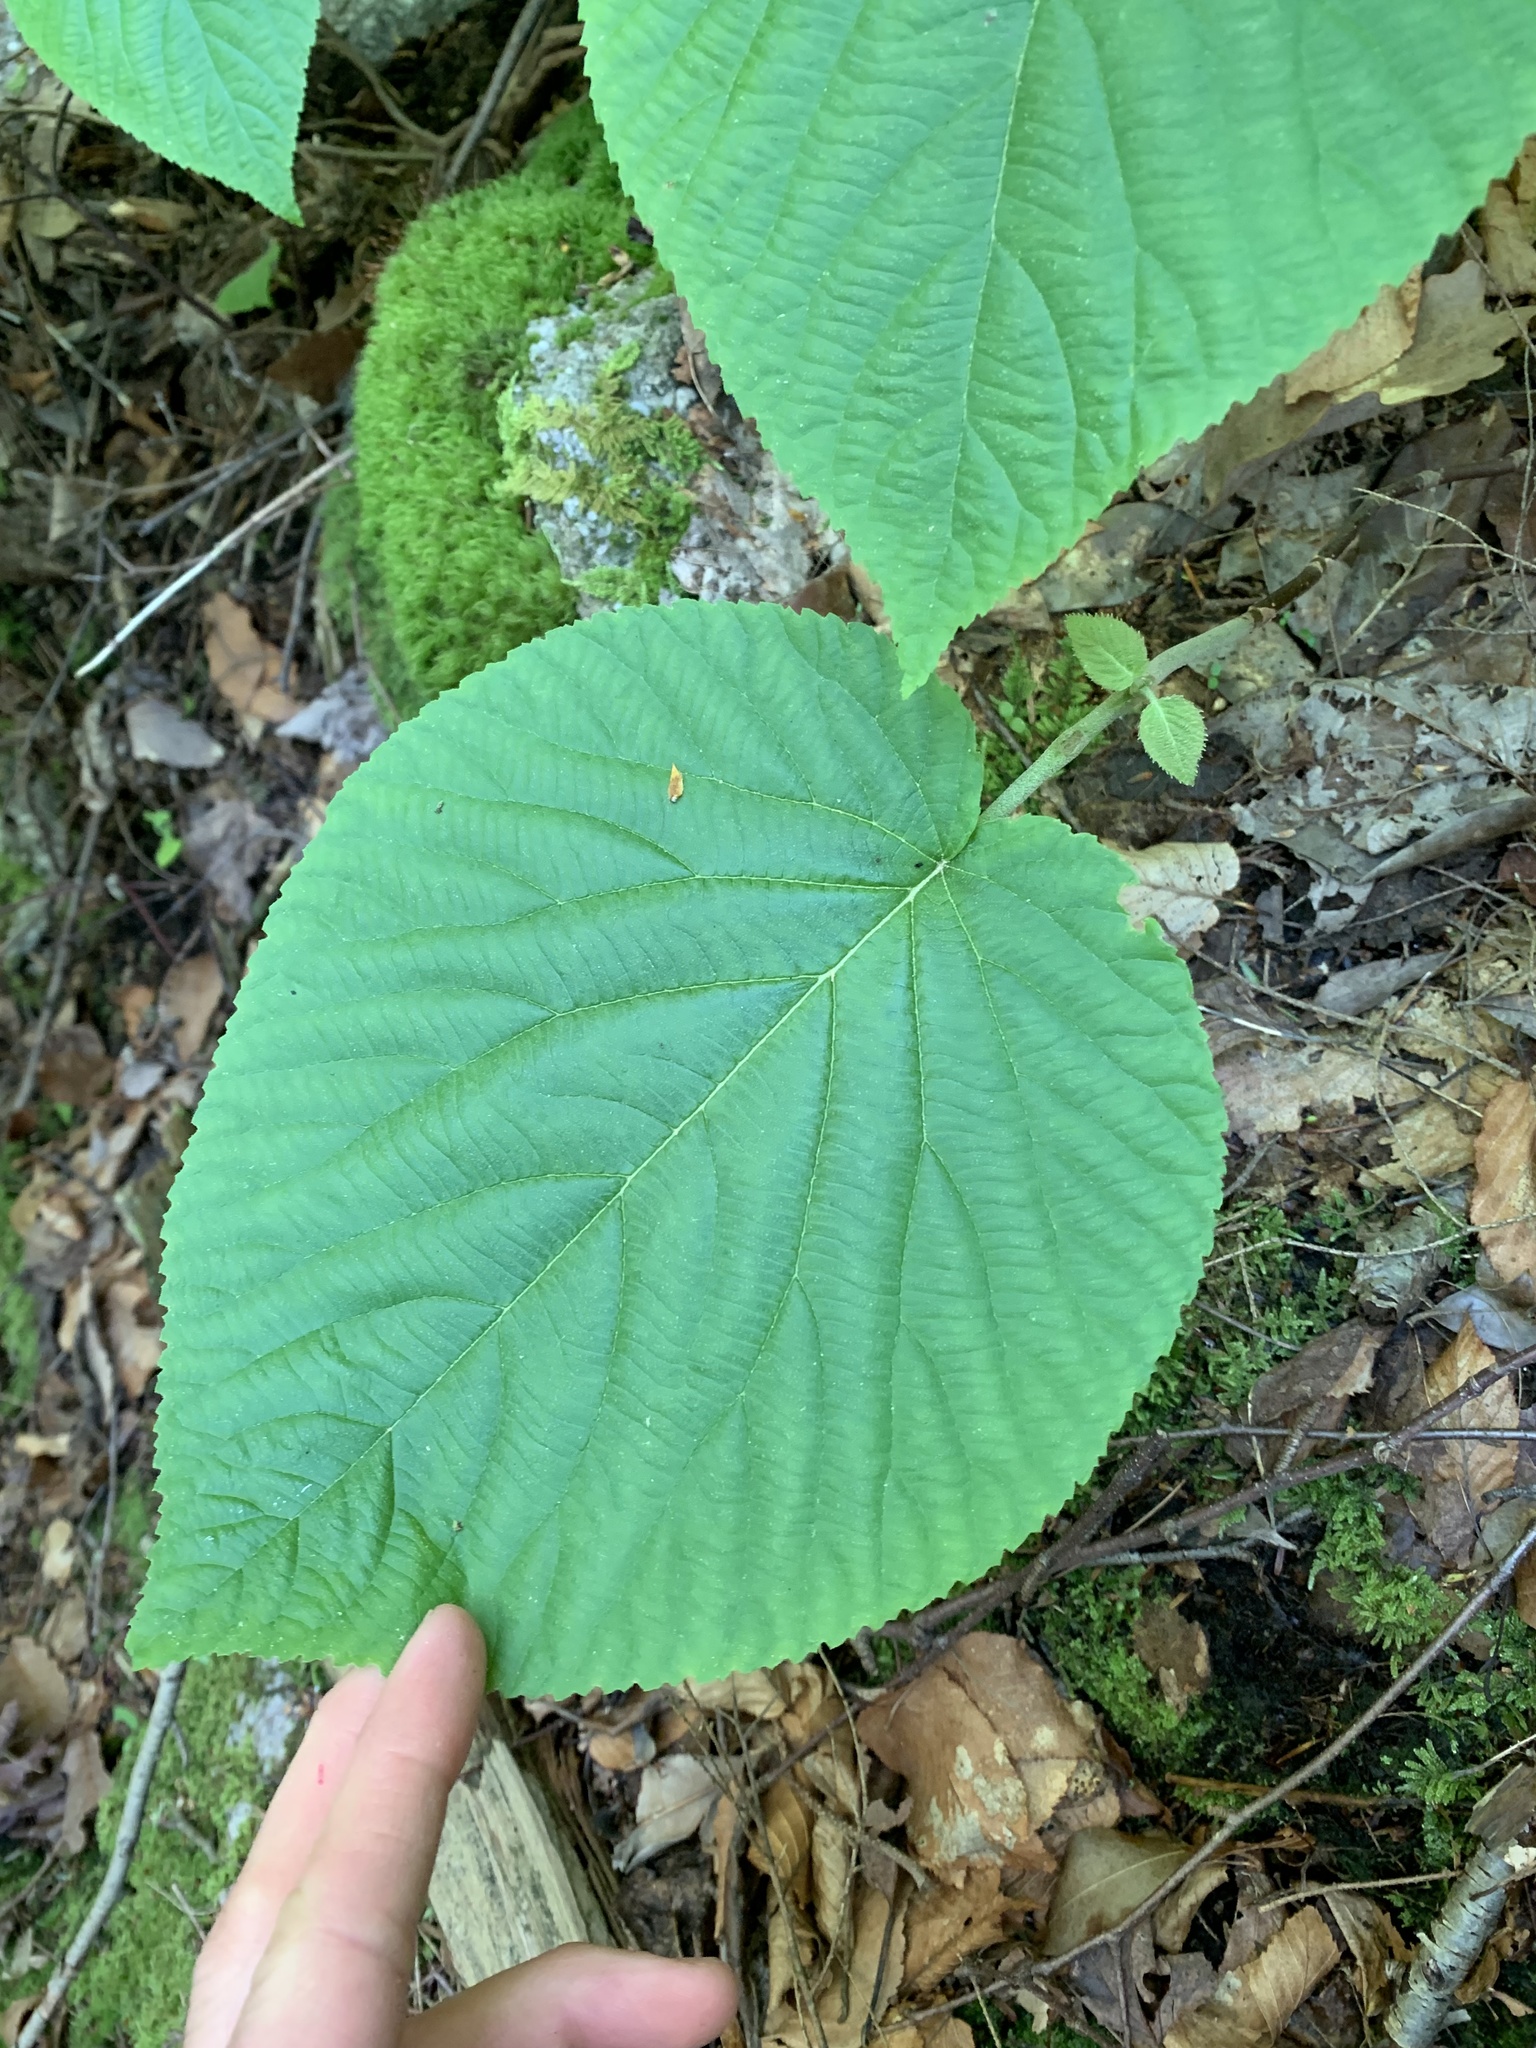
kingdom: Plantae
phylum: Tracheophyta
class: Magnoliopsida
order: Dipsacales
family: Viburnaceae
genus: Viburnum
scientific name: Viburnum lantanoides
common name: Hobblebush
